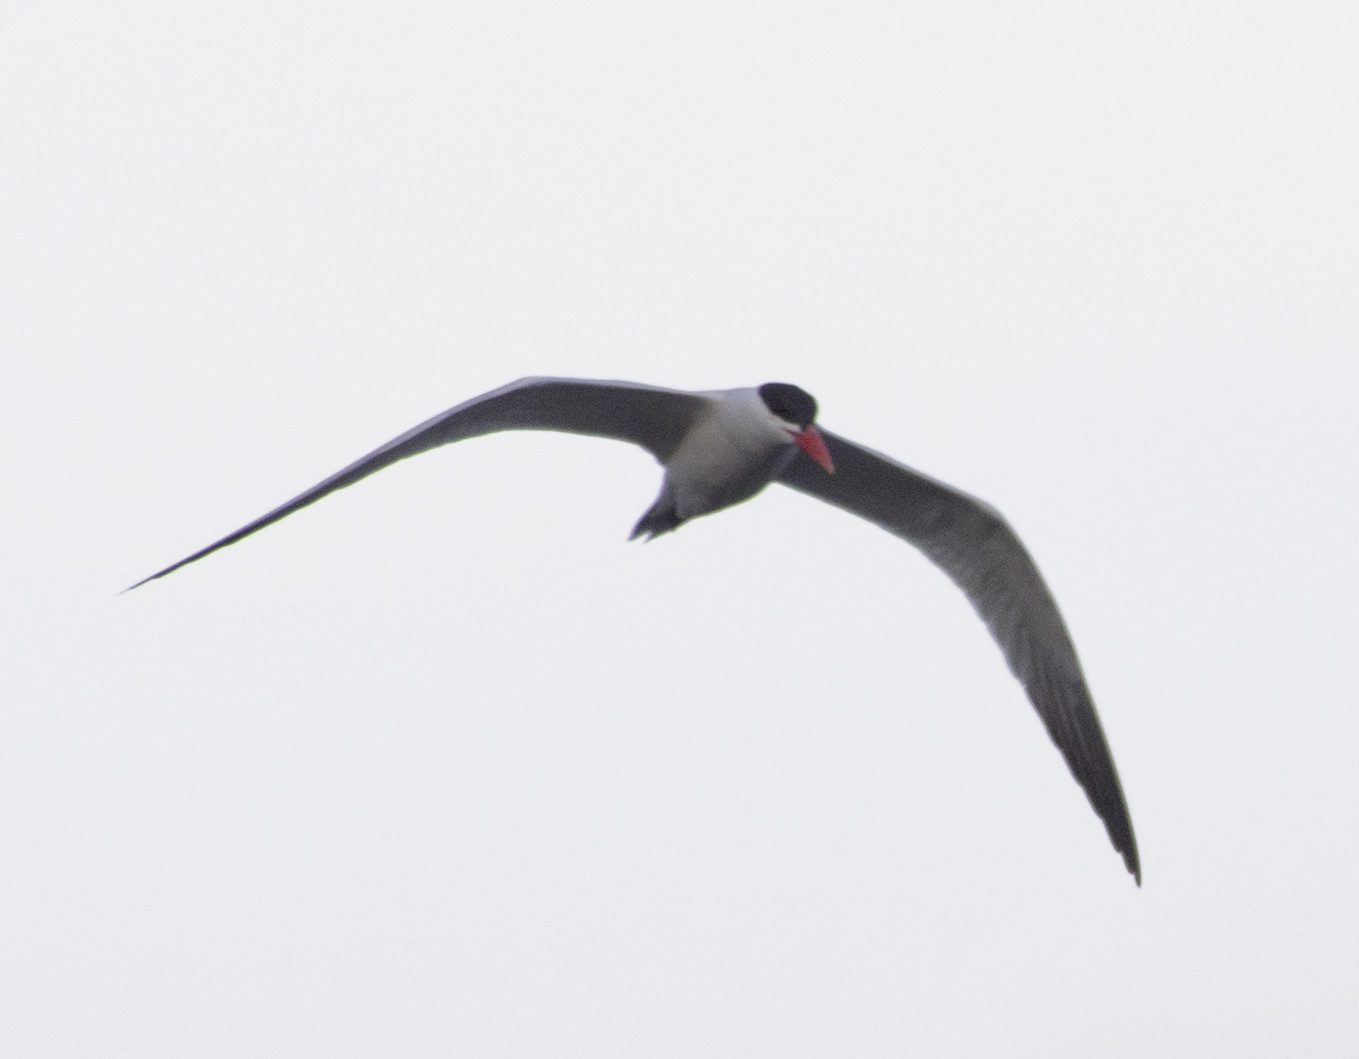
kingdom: Animalia
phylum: Chordata
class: Aves
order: Charadriiformes
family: Laridae
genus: Hydroprogne
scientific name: Hydroprogne caspia
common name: Caspian tern
